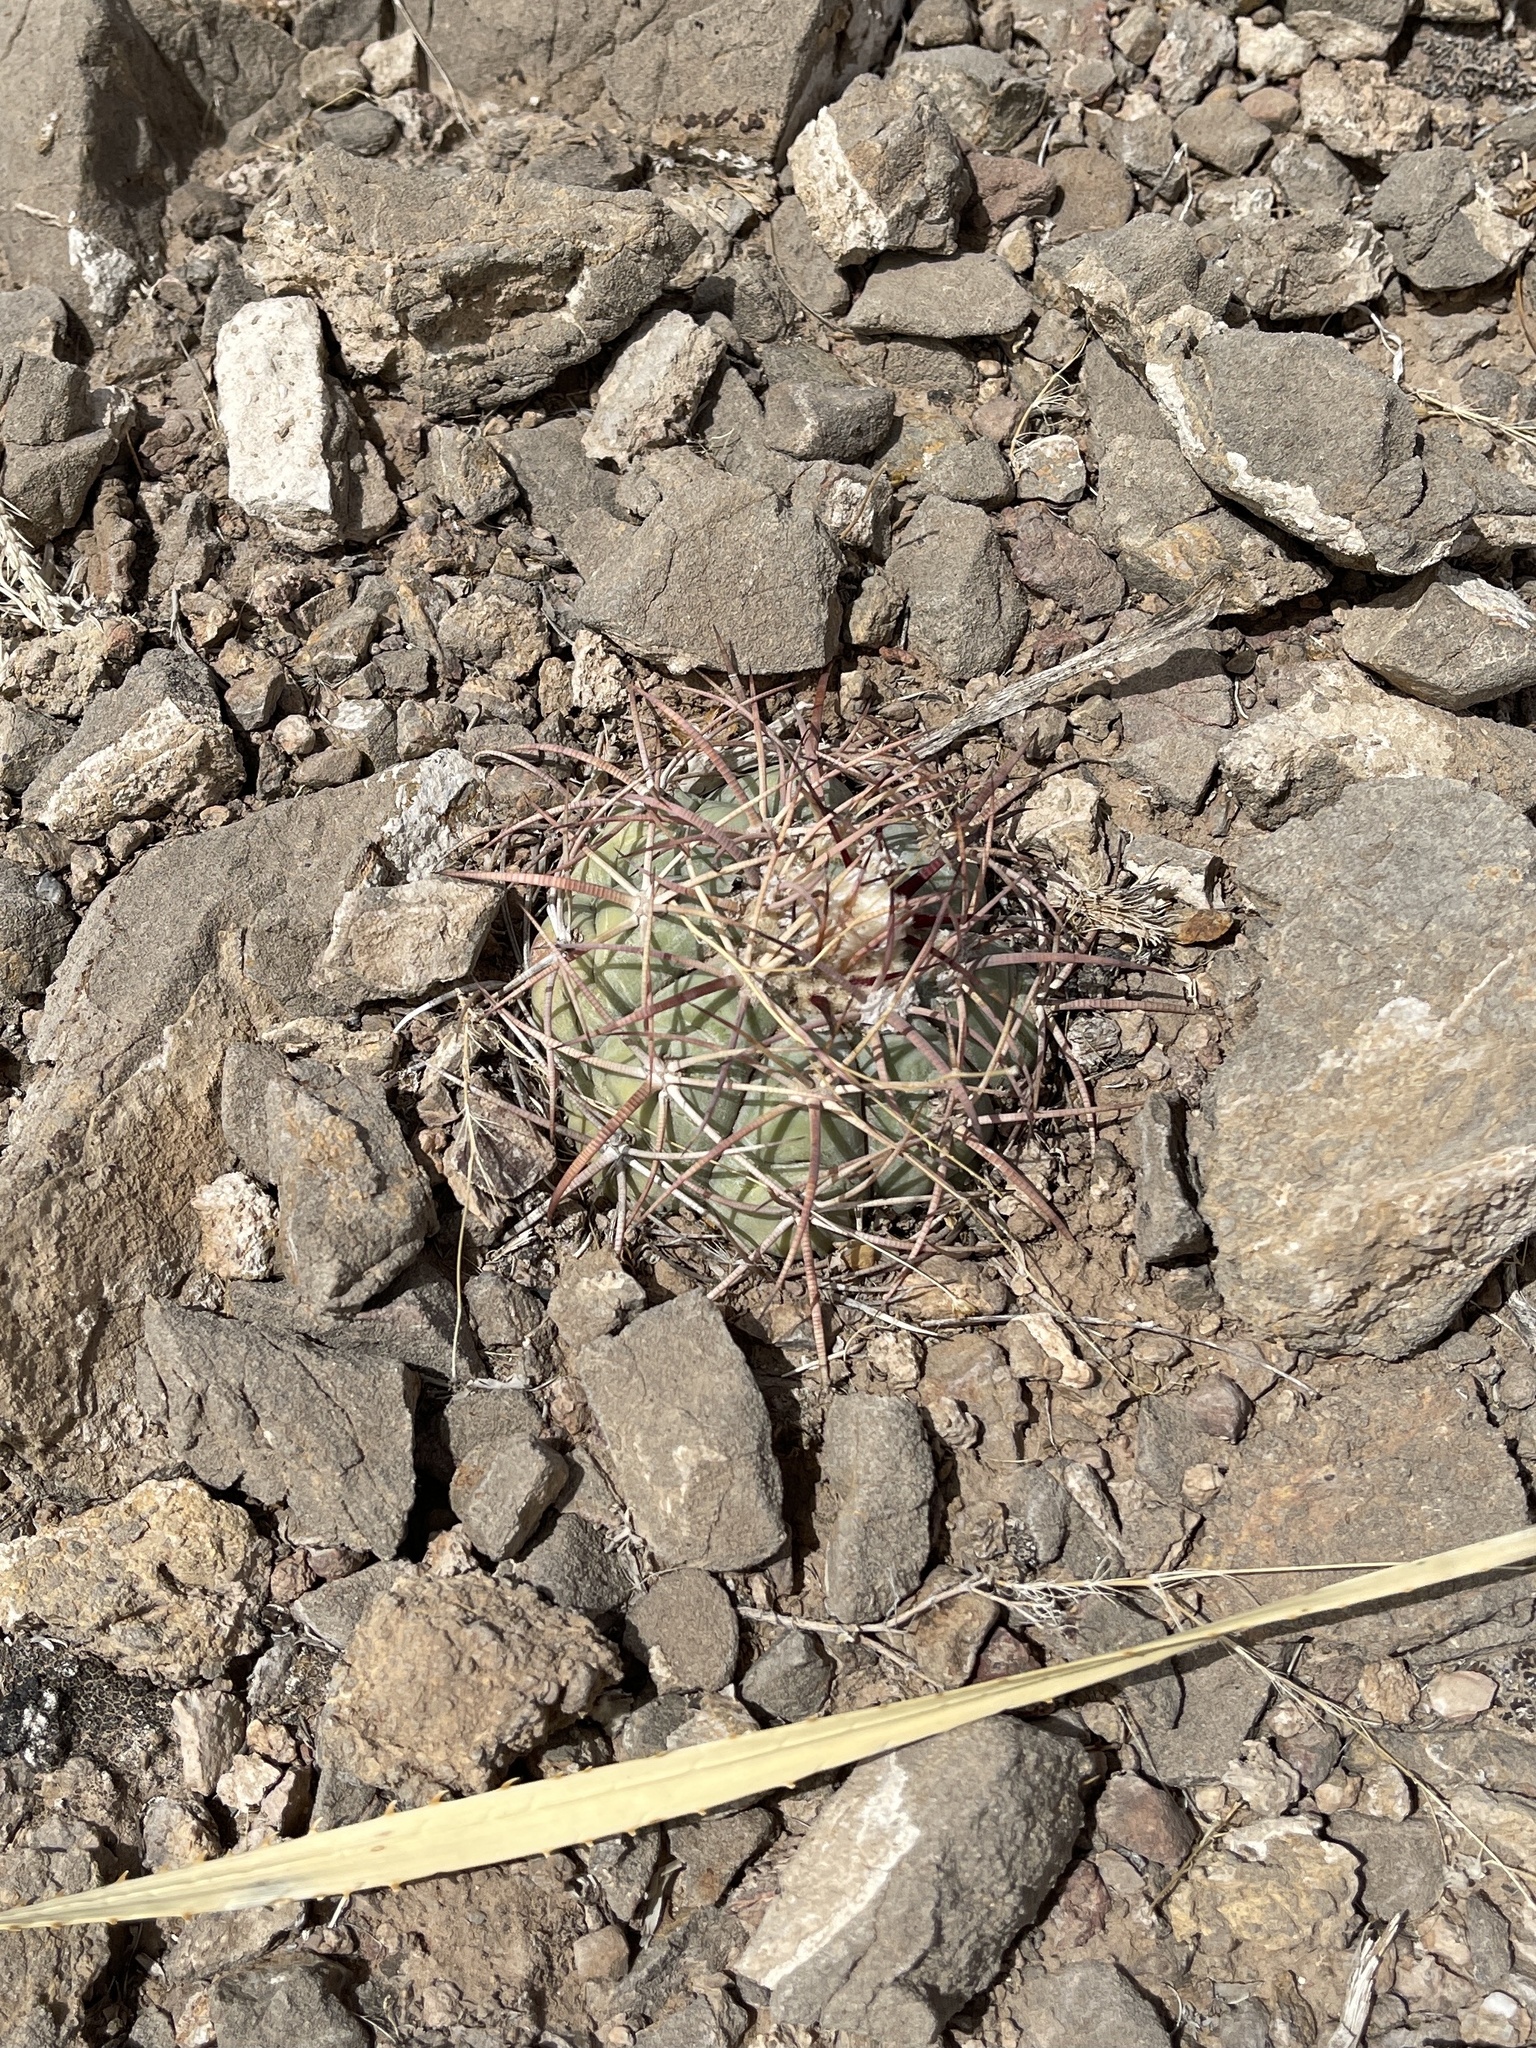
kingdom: Plantae
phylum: Tracheophyta
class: Magnoliopsida
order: Caryophyllales
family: Cactaceae
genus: Echinocactus
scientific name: Echinocactus horizonthalonius
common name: Devilshead
